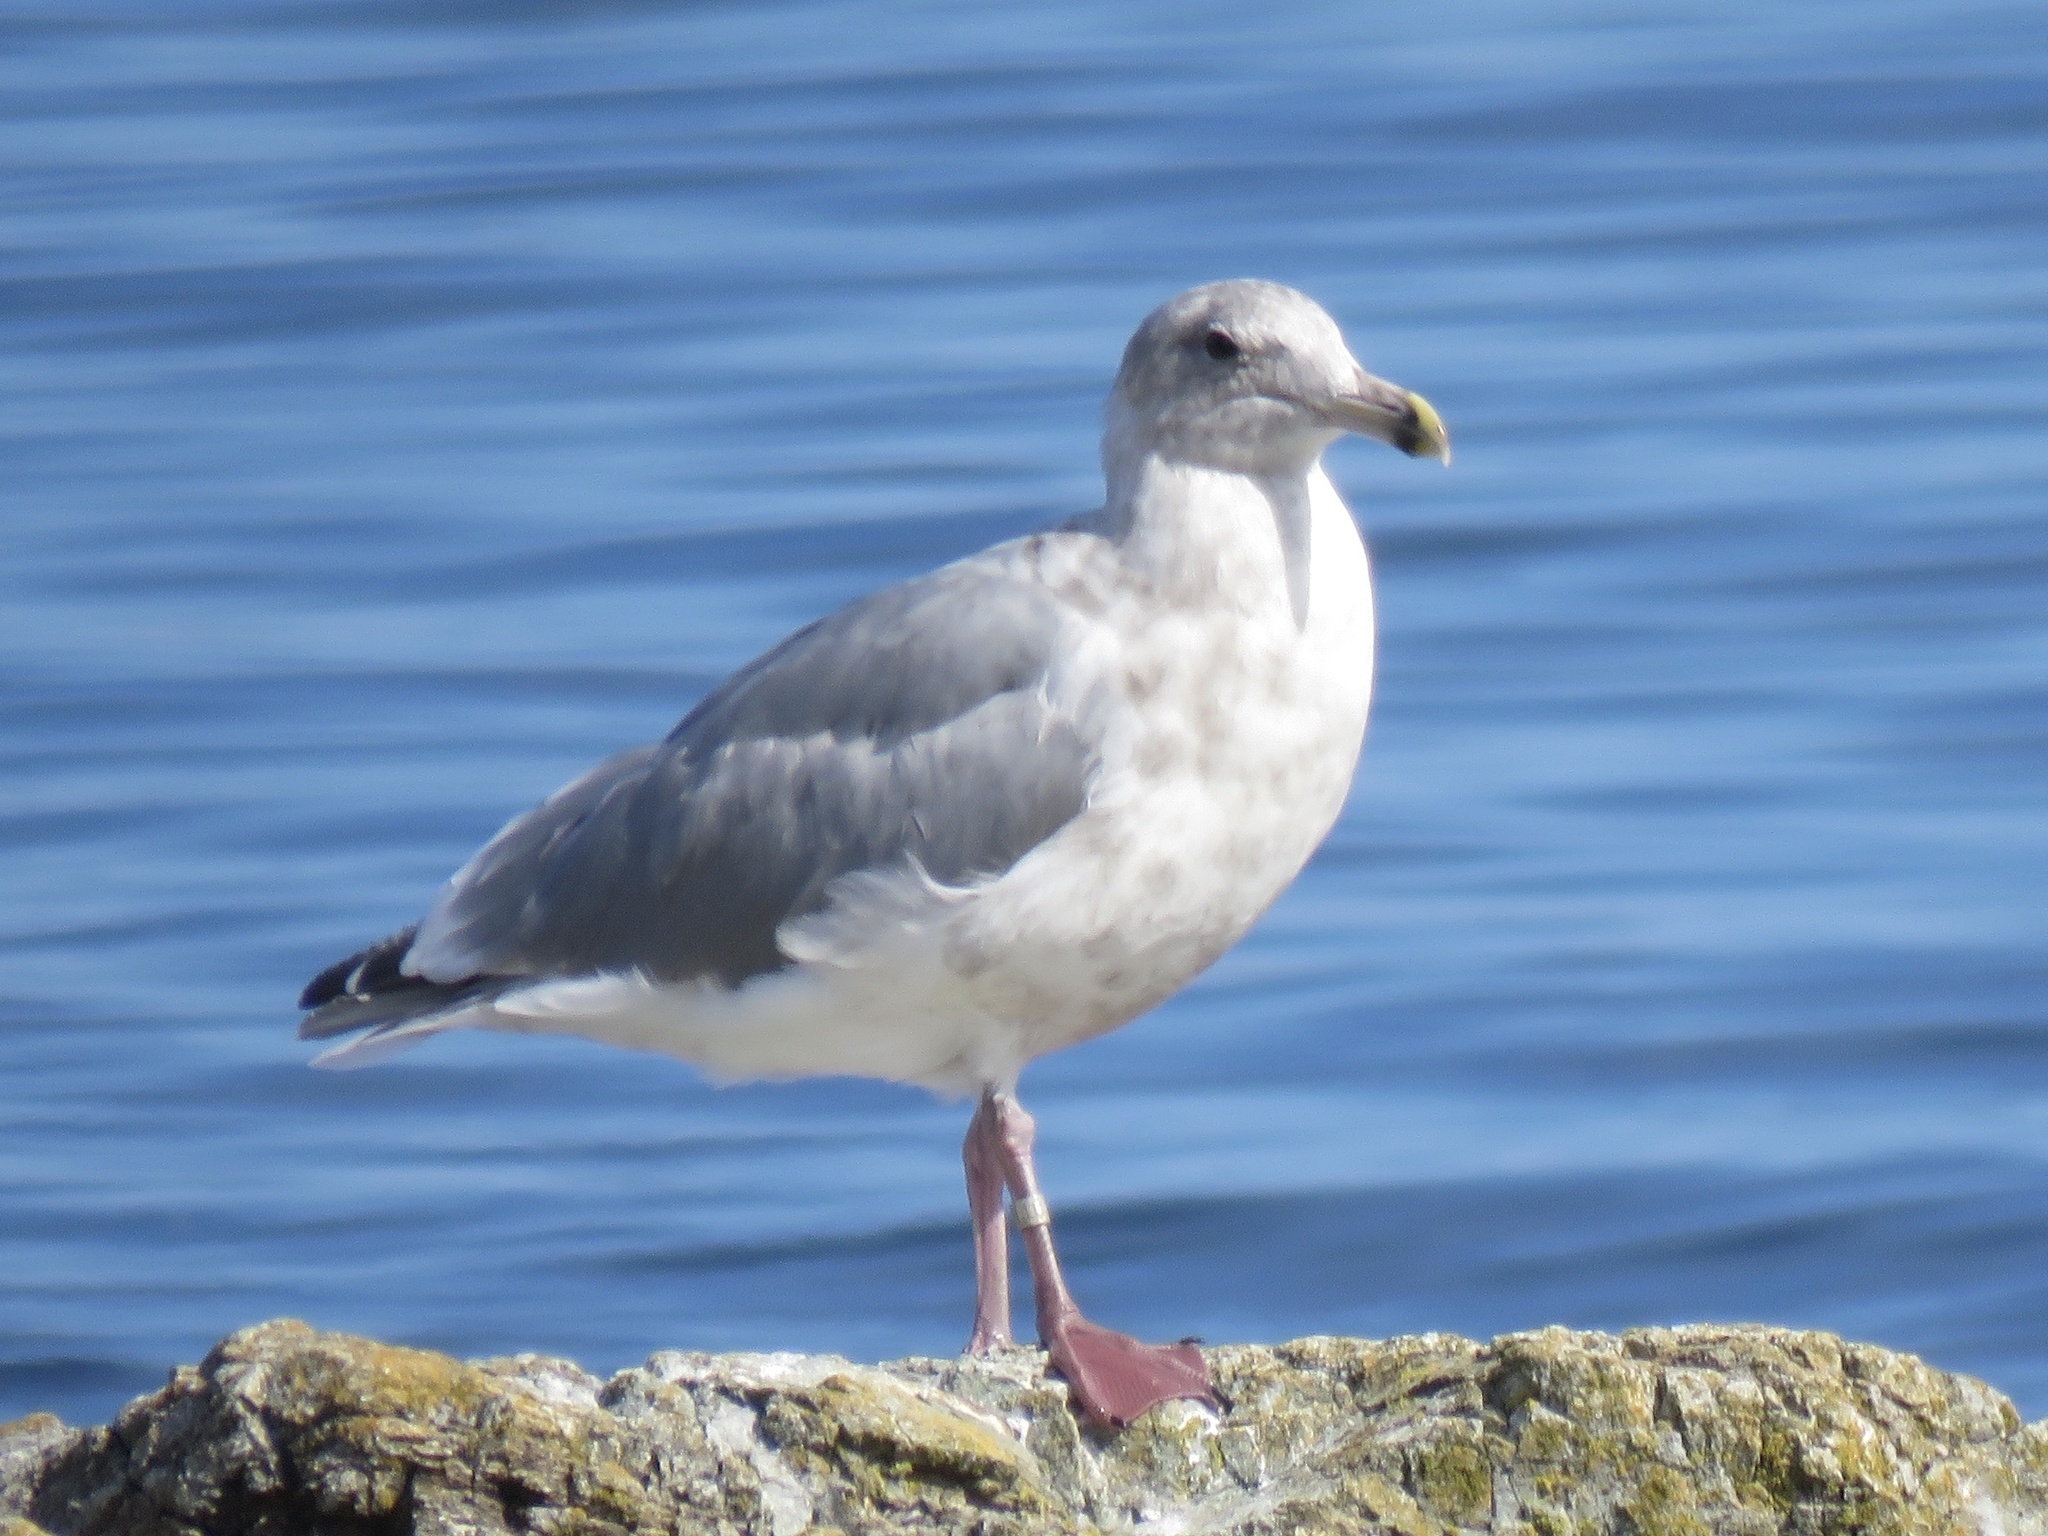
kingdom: Animalia
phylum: Chordata
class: Aves
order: Charadriiformes
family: Laridae
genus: Larus
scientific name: Larus
